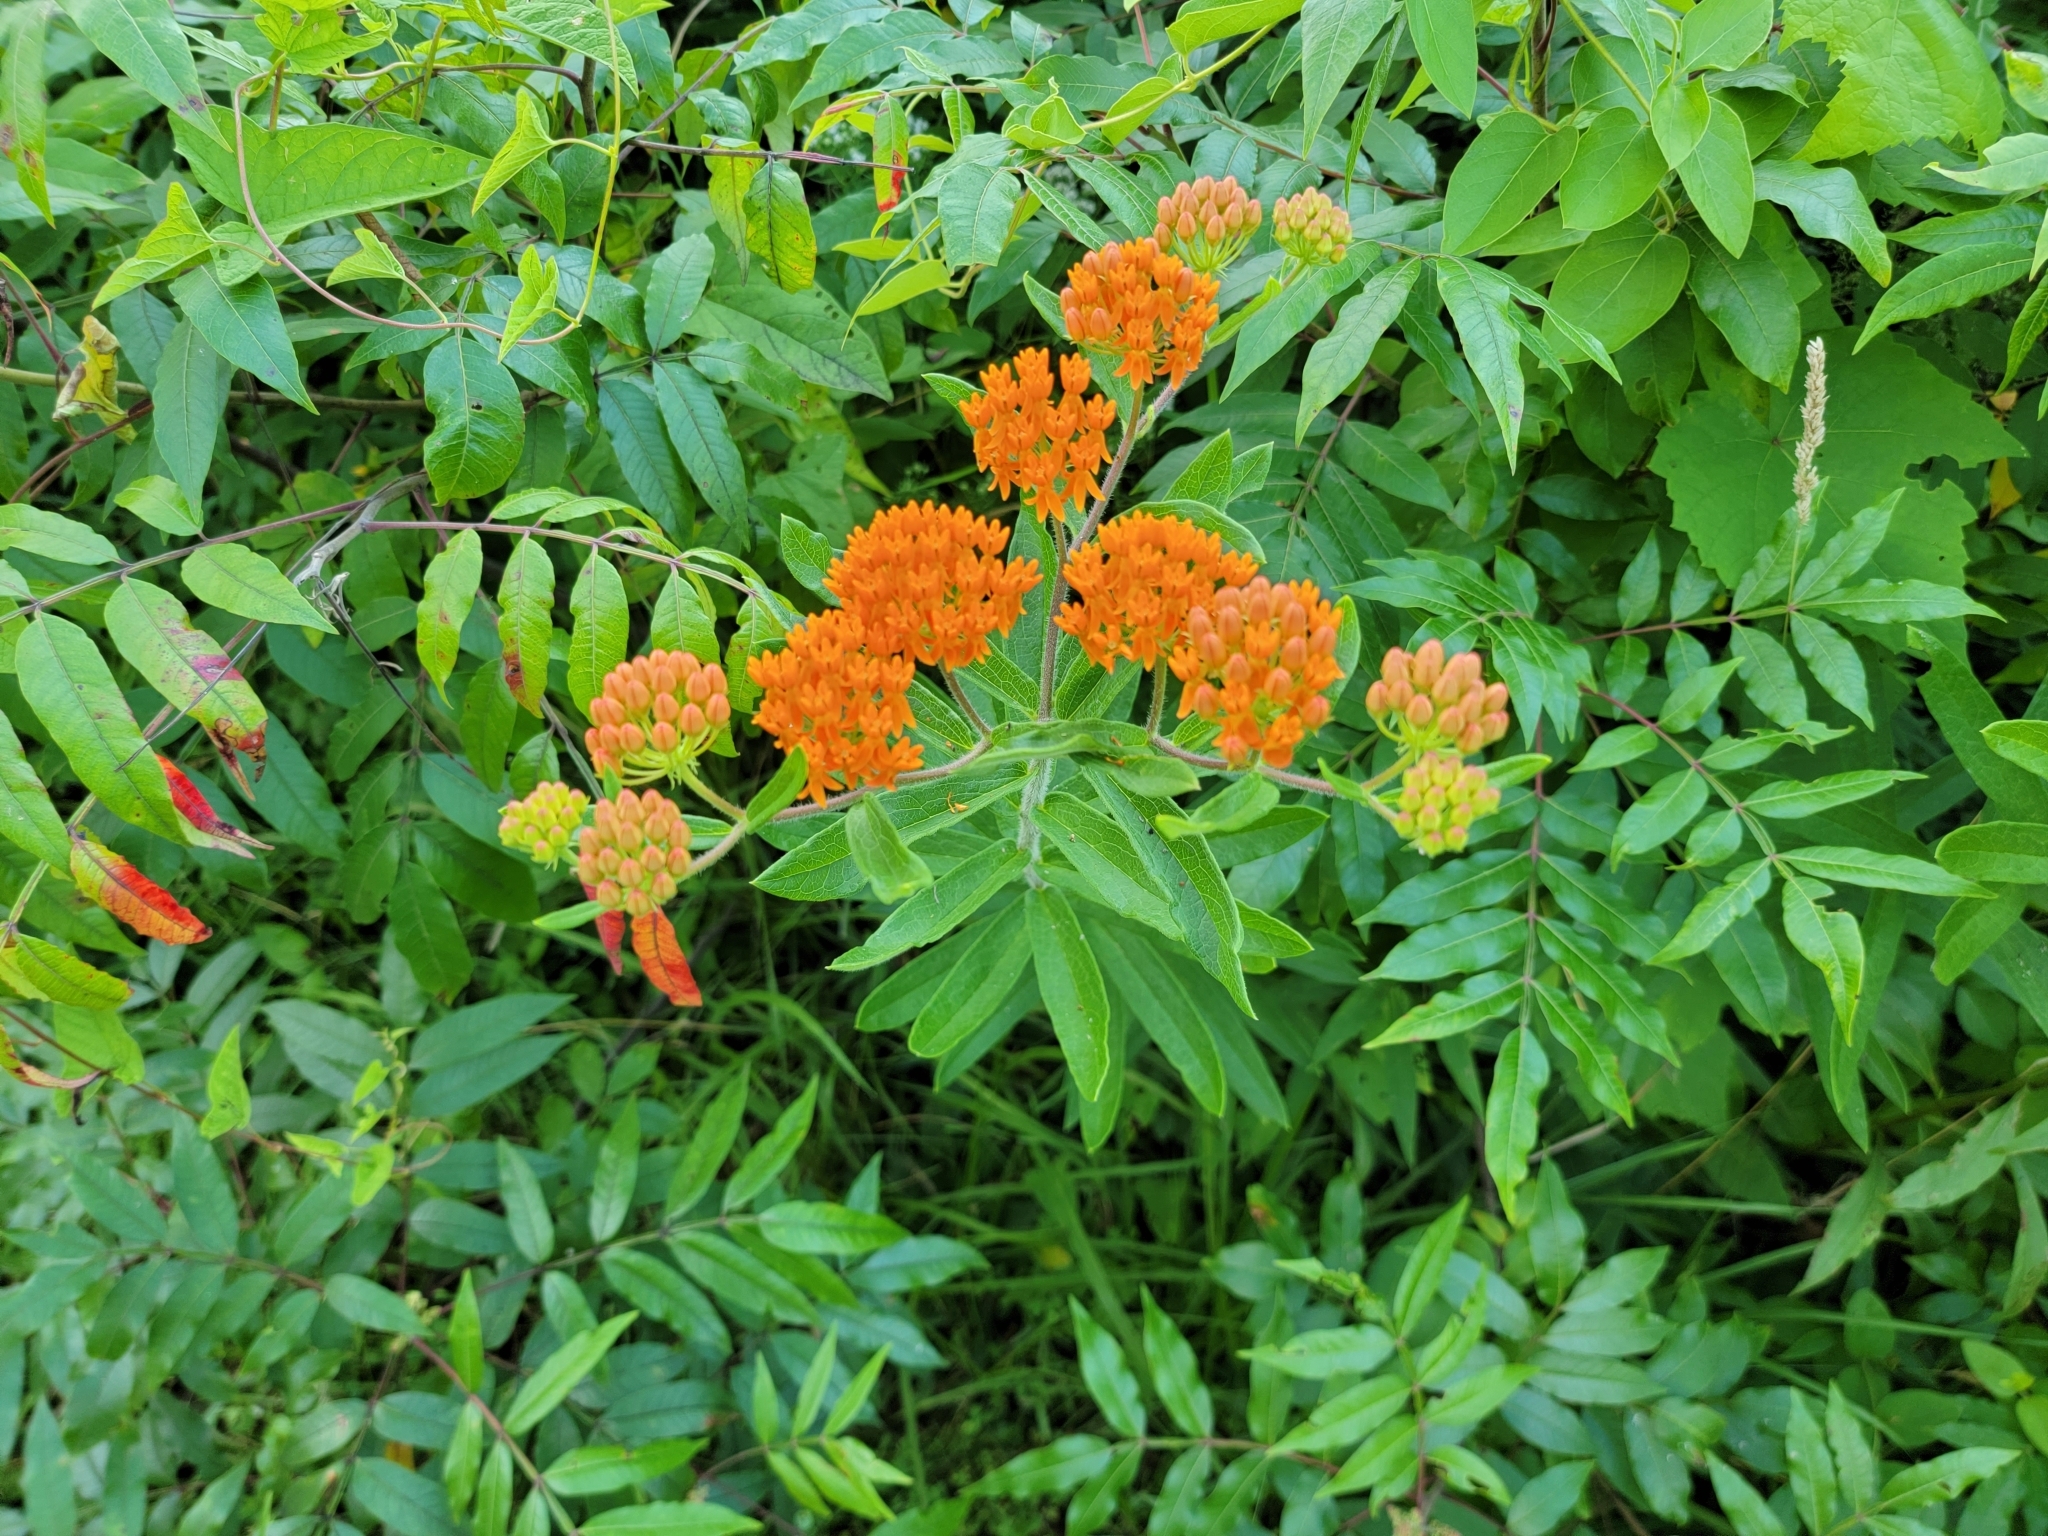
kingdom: Plantae
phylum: Tracheophyta
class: Magnoliopsida
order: Gentianales
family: Apocynaceae
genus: Asclepias
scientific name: Asclepias tuberosa
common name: Butterfly milkweed
